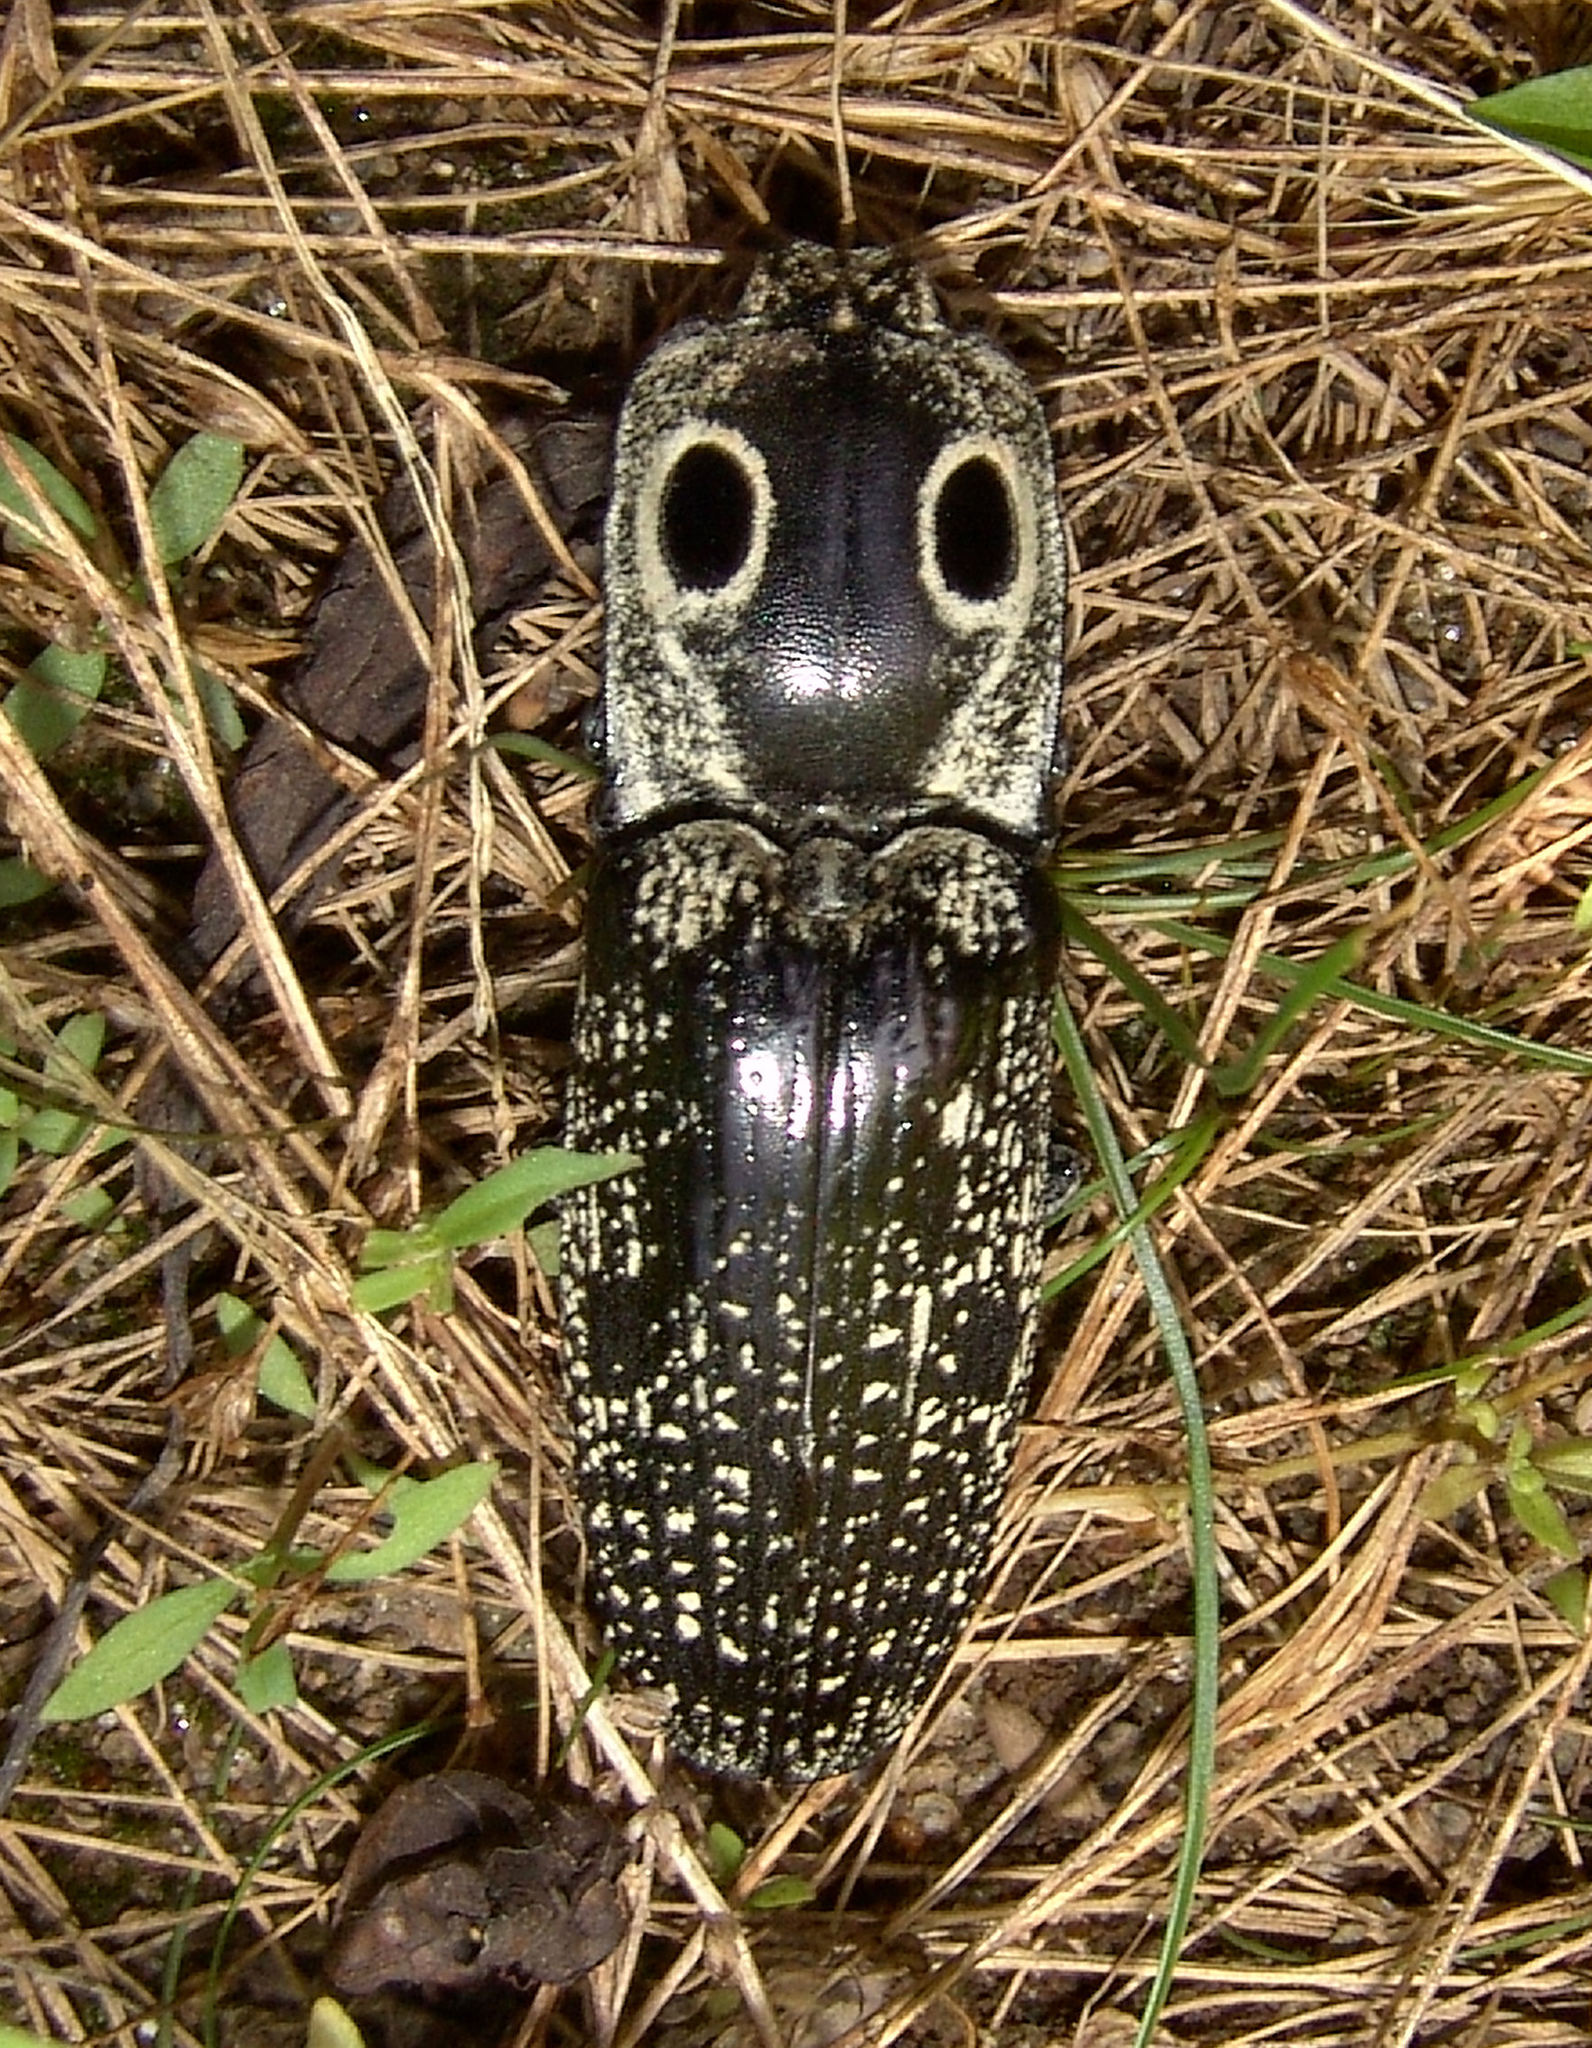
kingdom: Animalia
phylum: Arthropoda
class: Insecta
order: Coleoptera
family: Elateridae
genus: Alaus
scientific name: Alaus oculatus
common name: Eastern eyed click beetle
